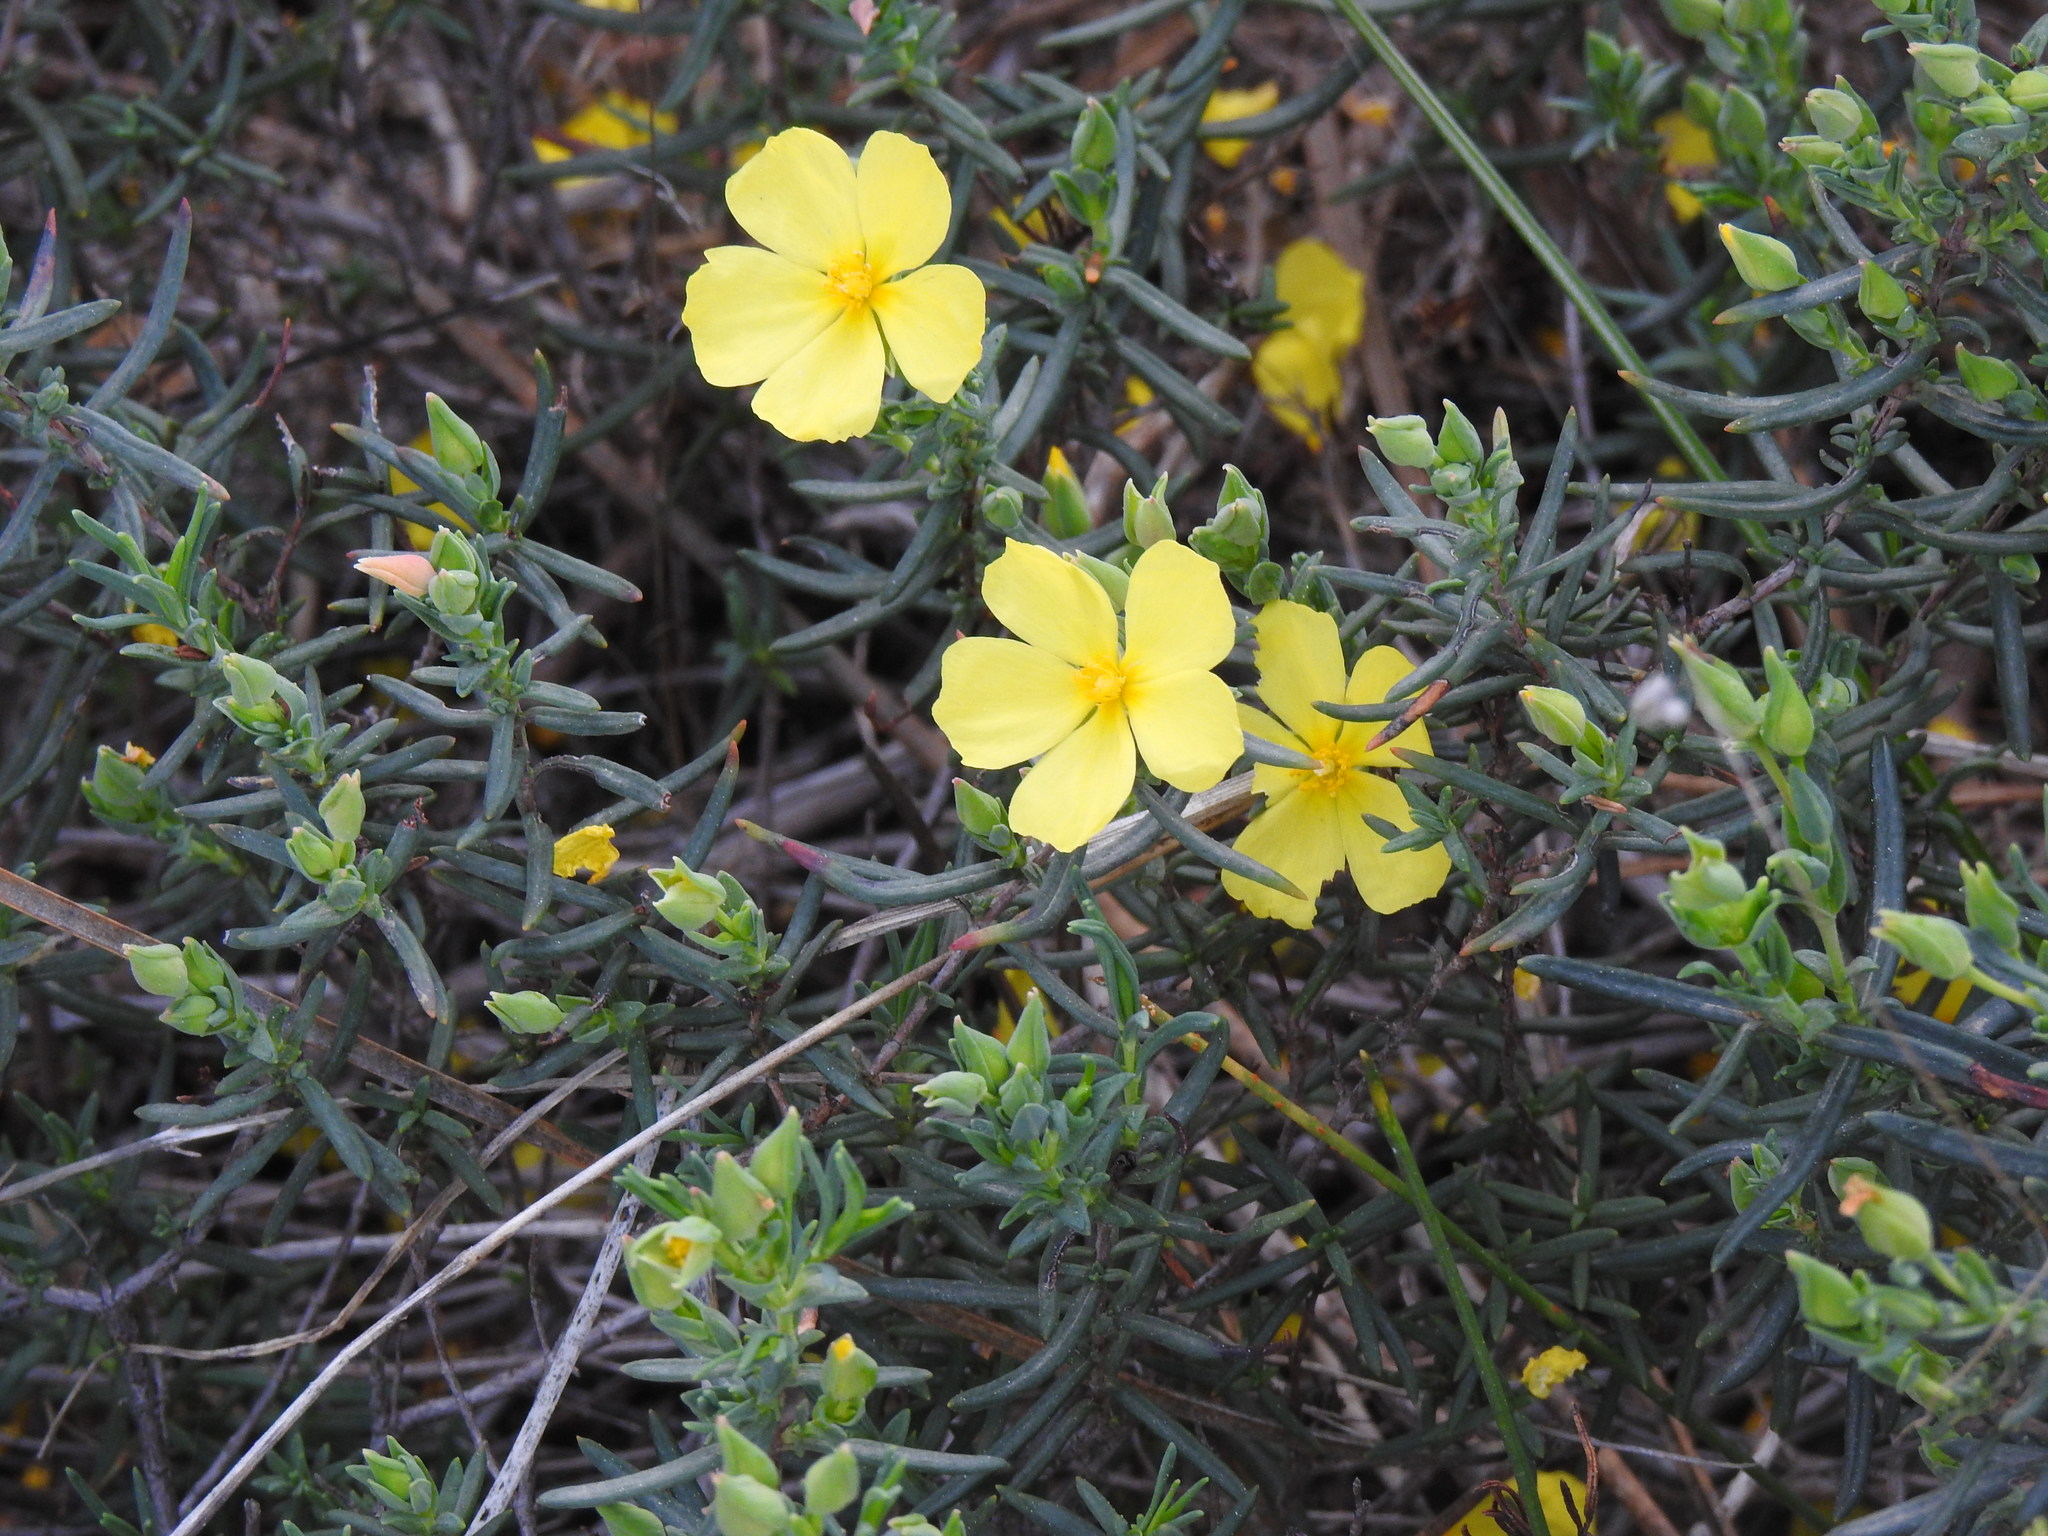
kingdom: Plantae
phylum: Tracheophyta
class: Magnoliopsida
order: Malvales
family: Cistaceae
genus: Halimium
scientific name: Halimium calycinum
